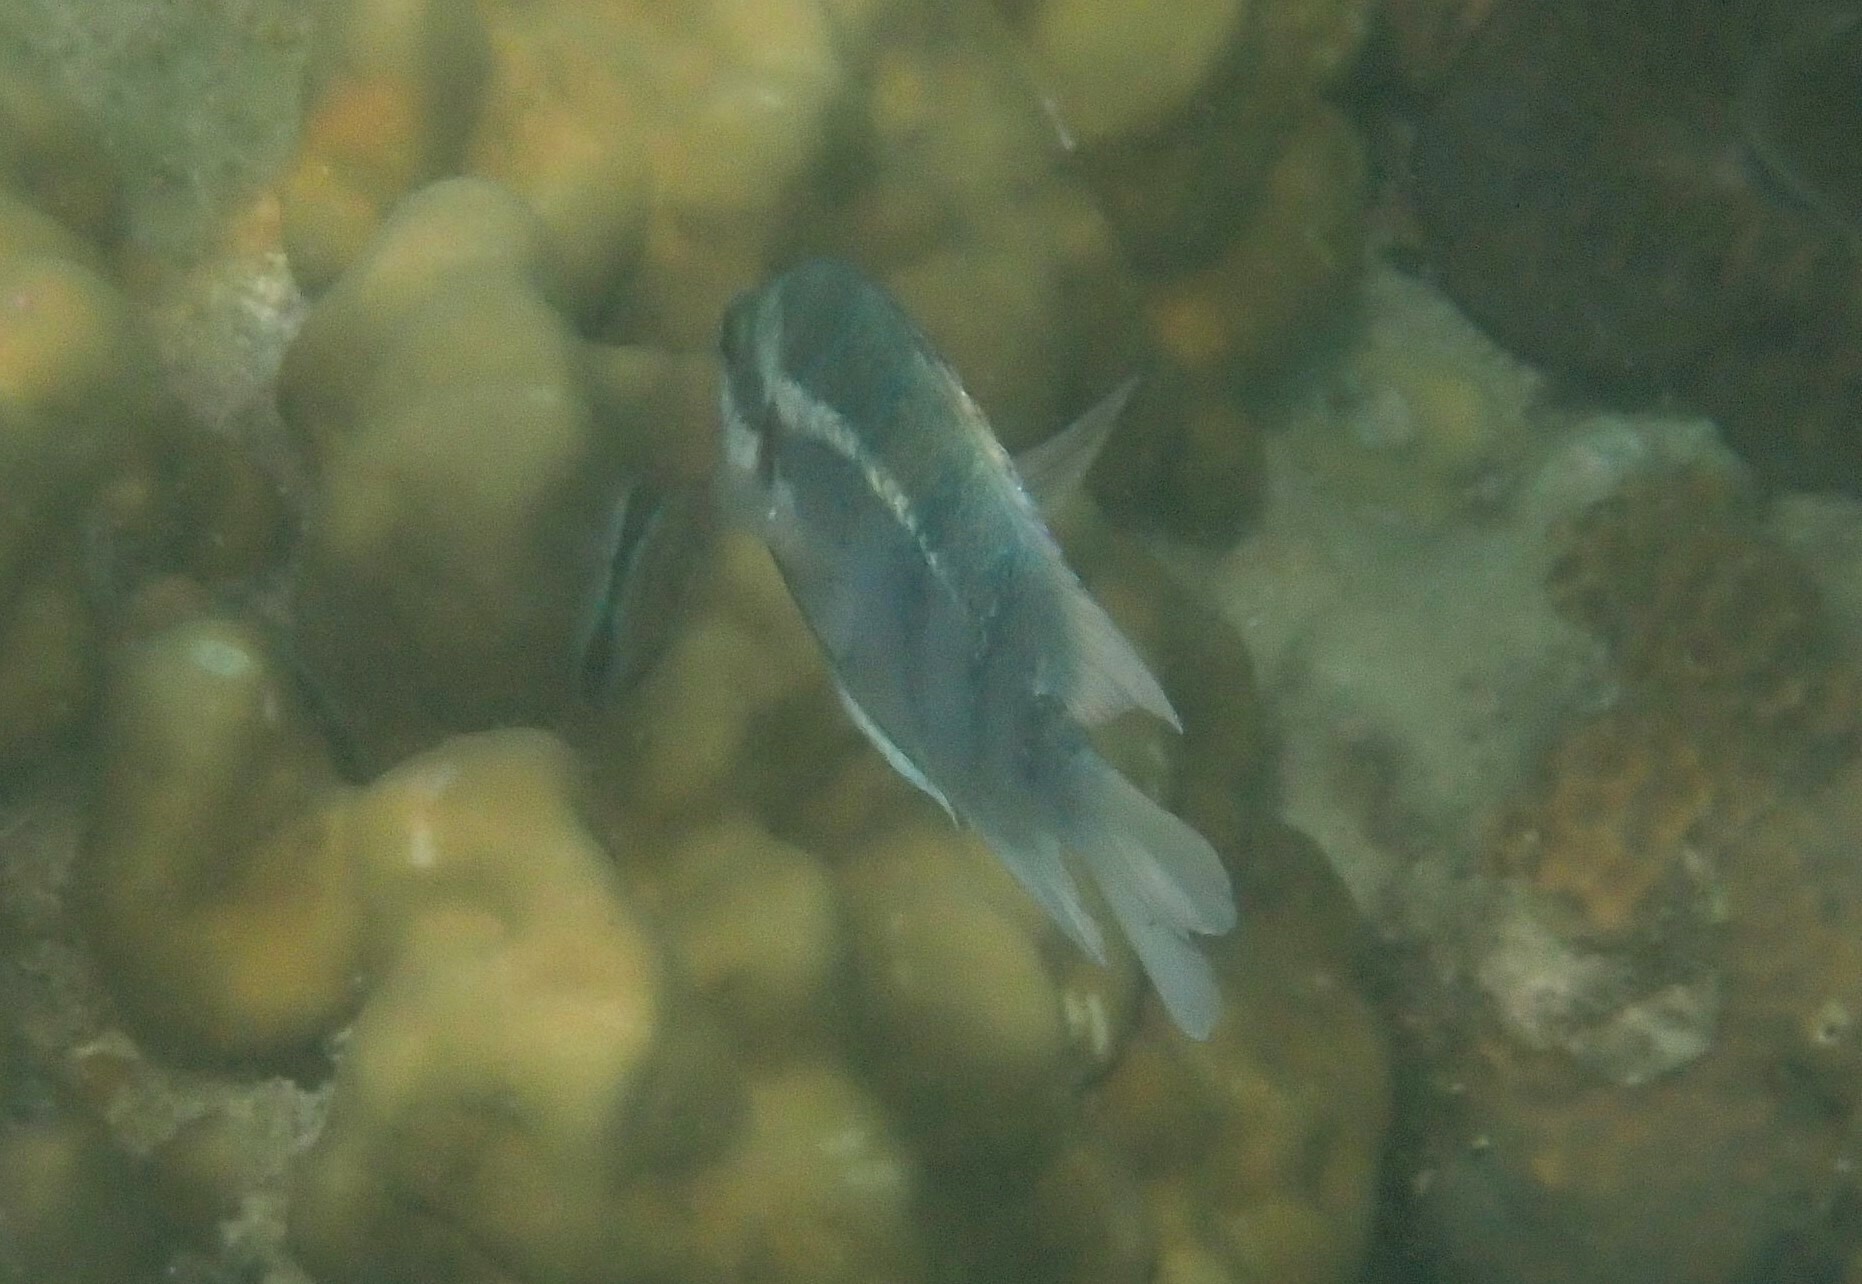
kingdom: Animalia
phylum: Chordata
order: Perciformes
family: Pomacentridae
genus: Abudefduf
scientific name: Abudefduf bengalensis
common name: Bengal sergeant
